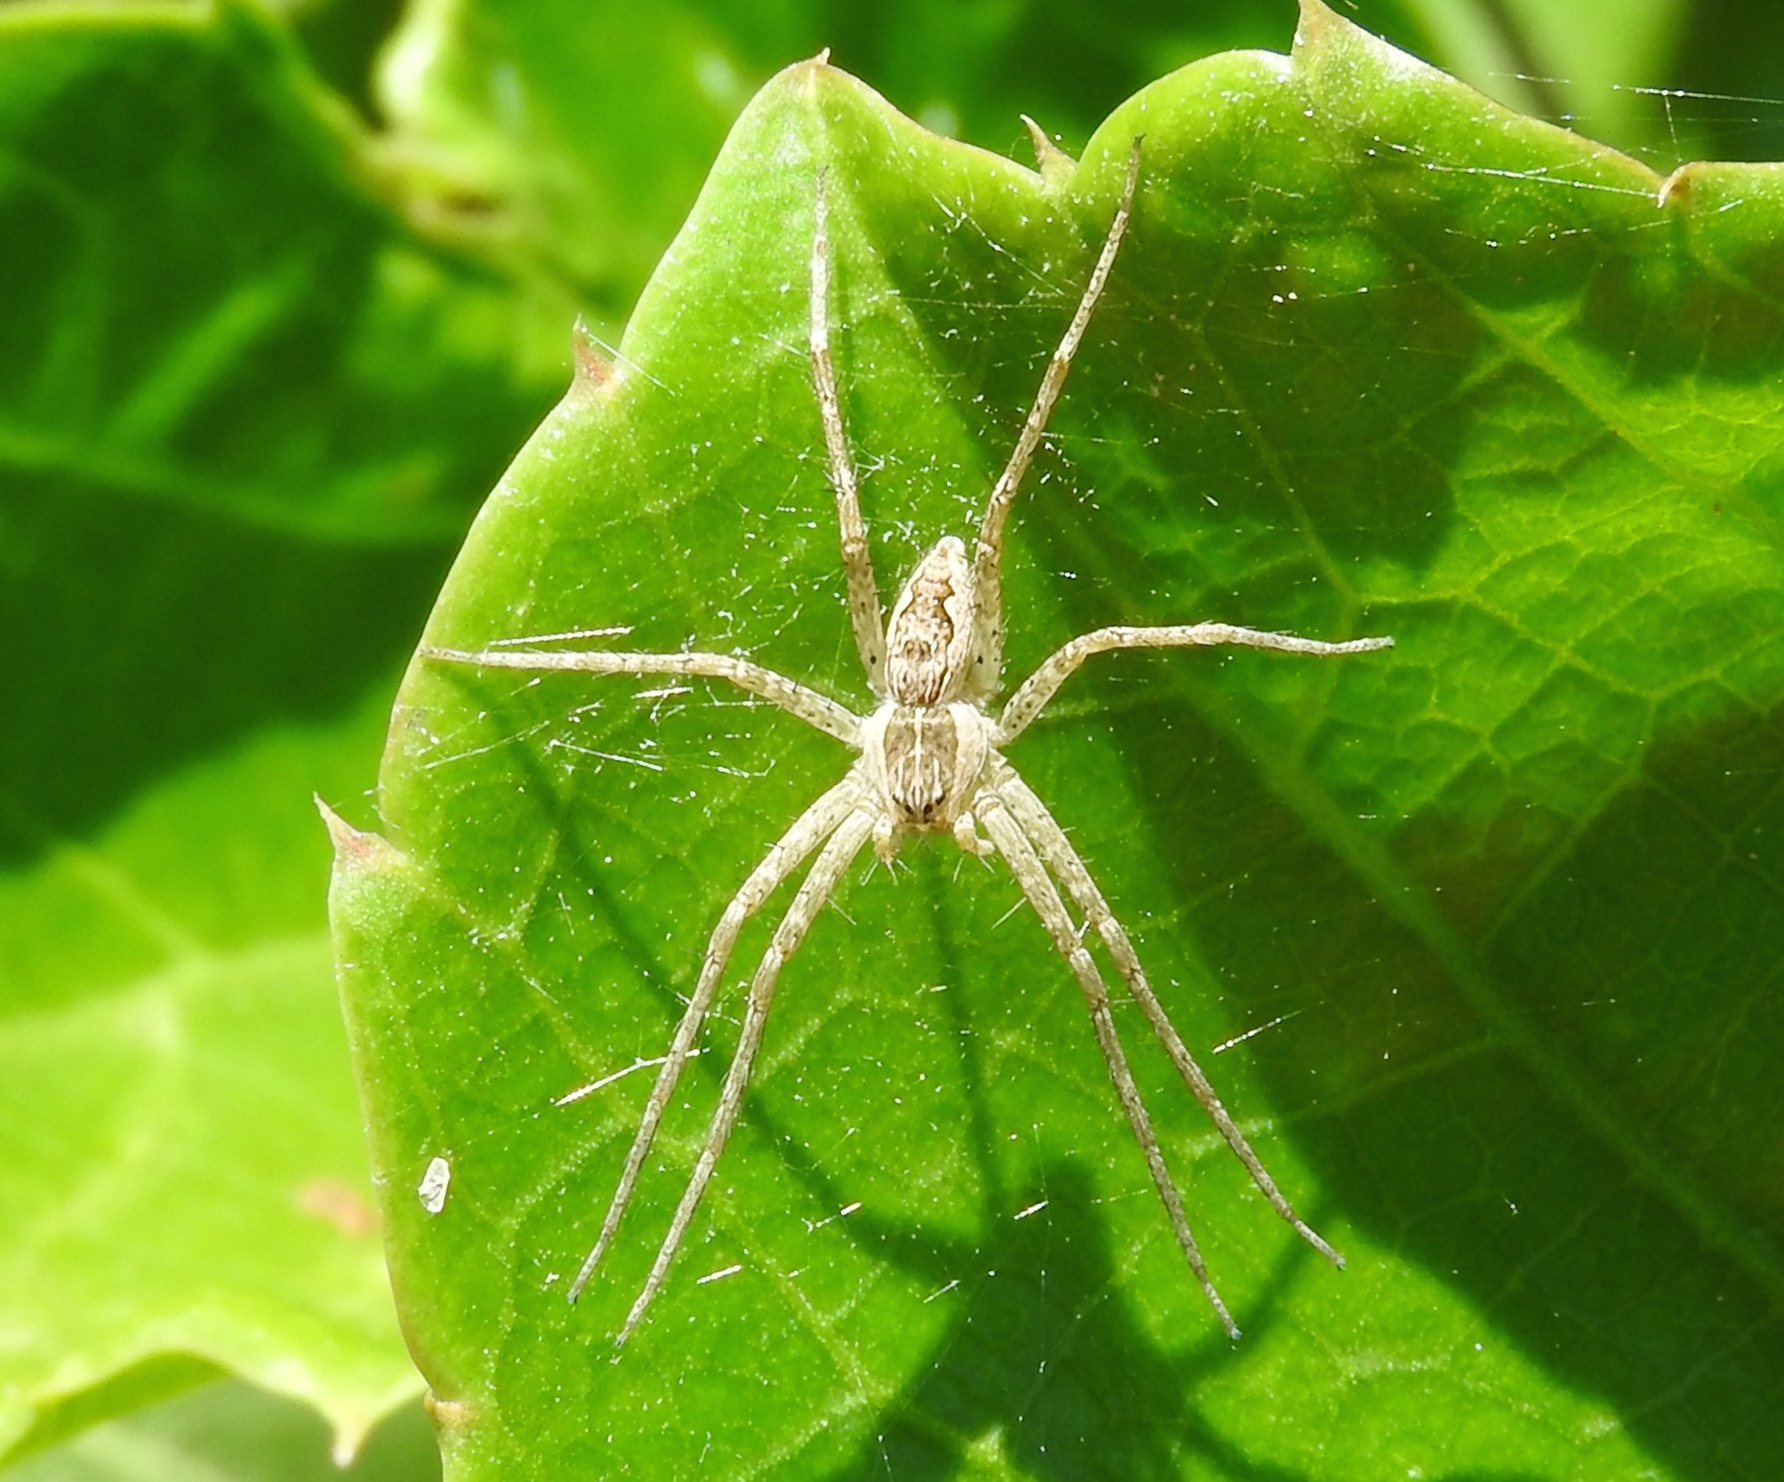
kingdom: Animalia
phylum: Arthropoda
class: Arachnida
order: Araneae
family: Pisauridae
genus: Tinus
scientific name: Tinus
